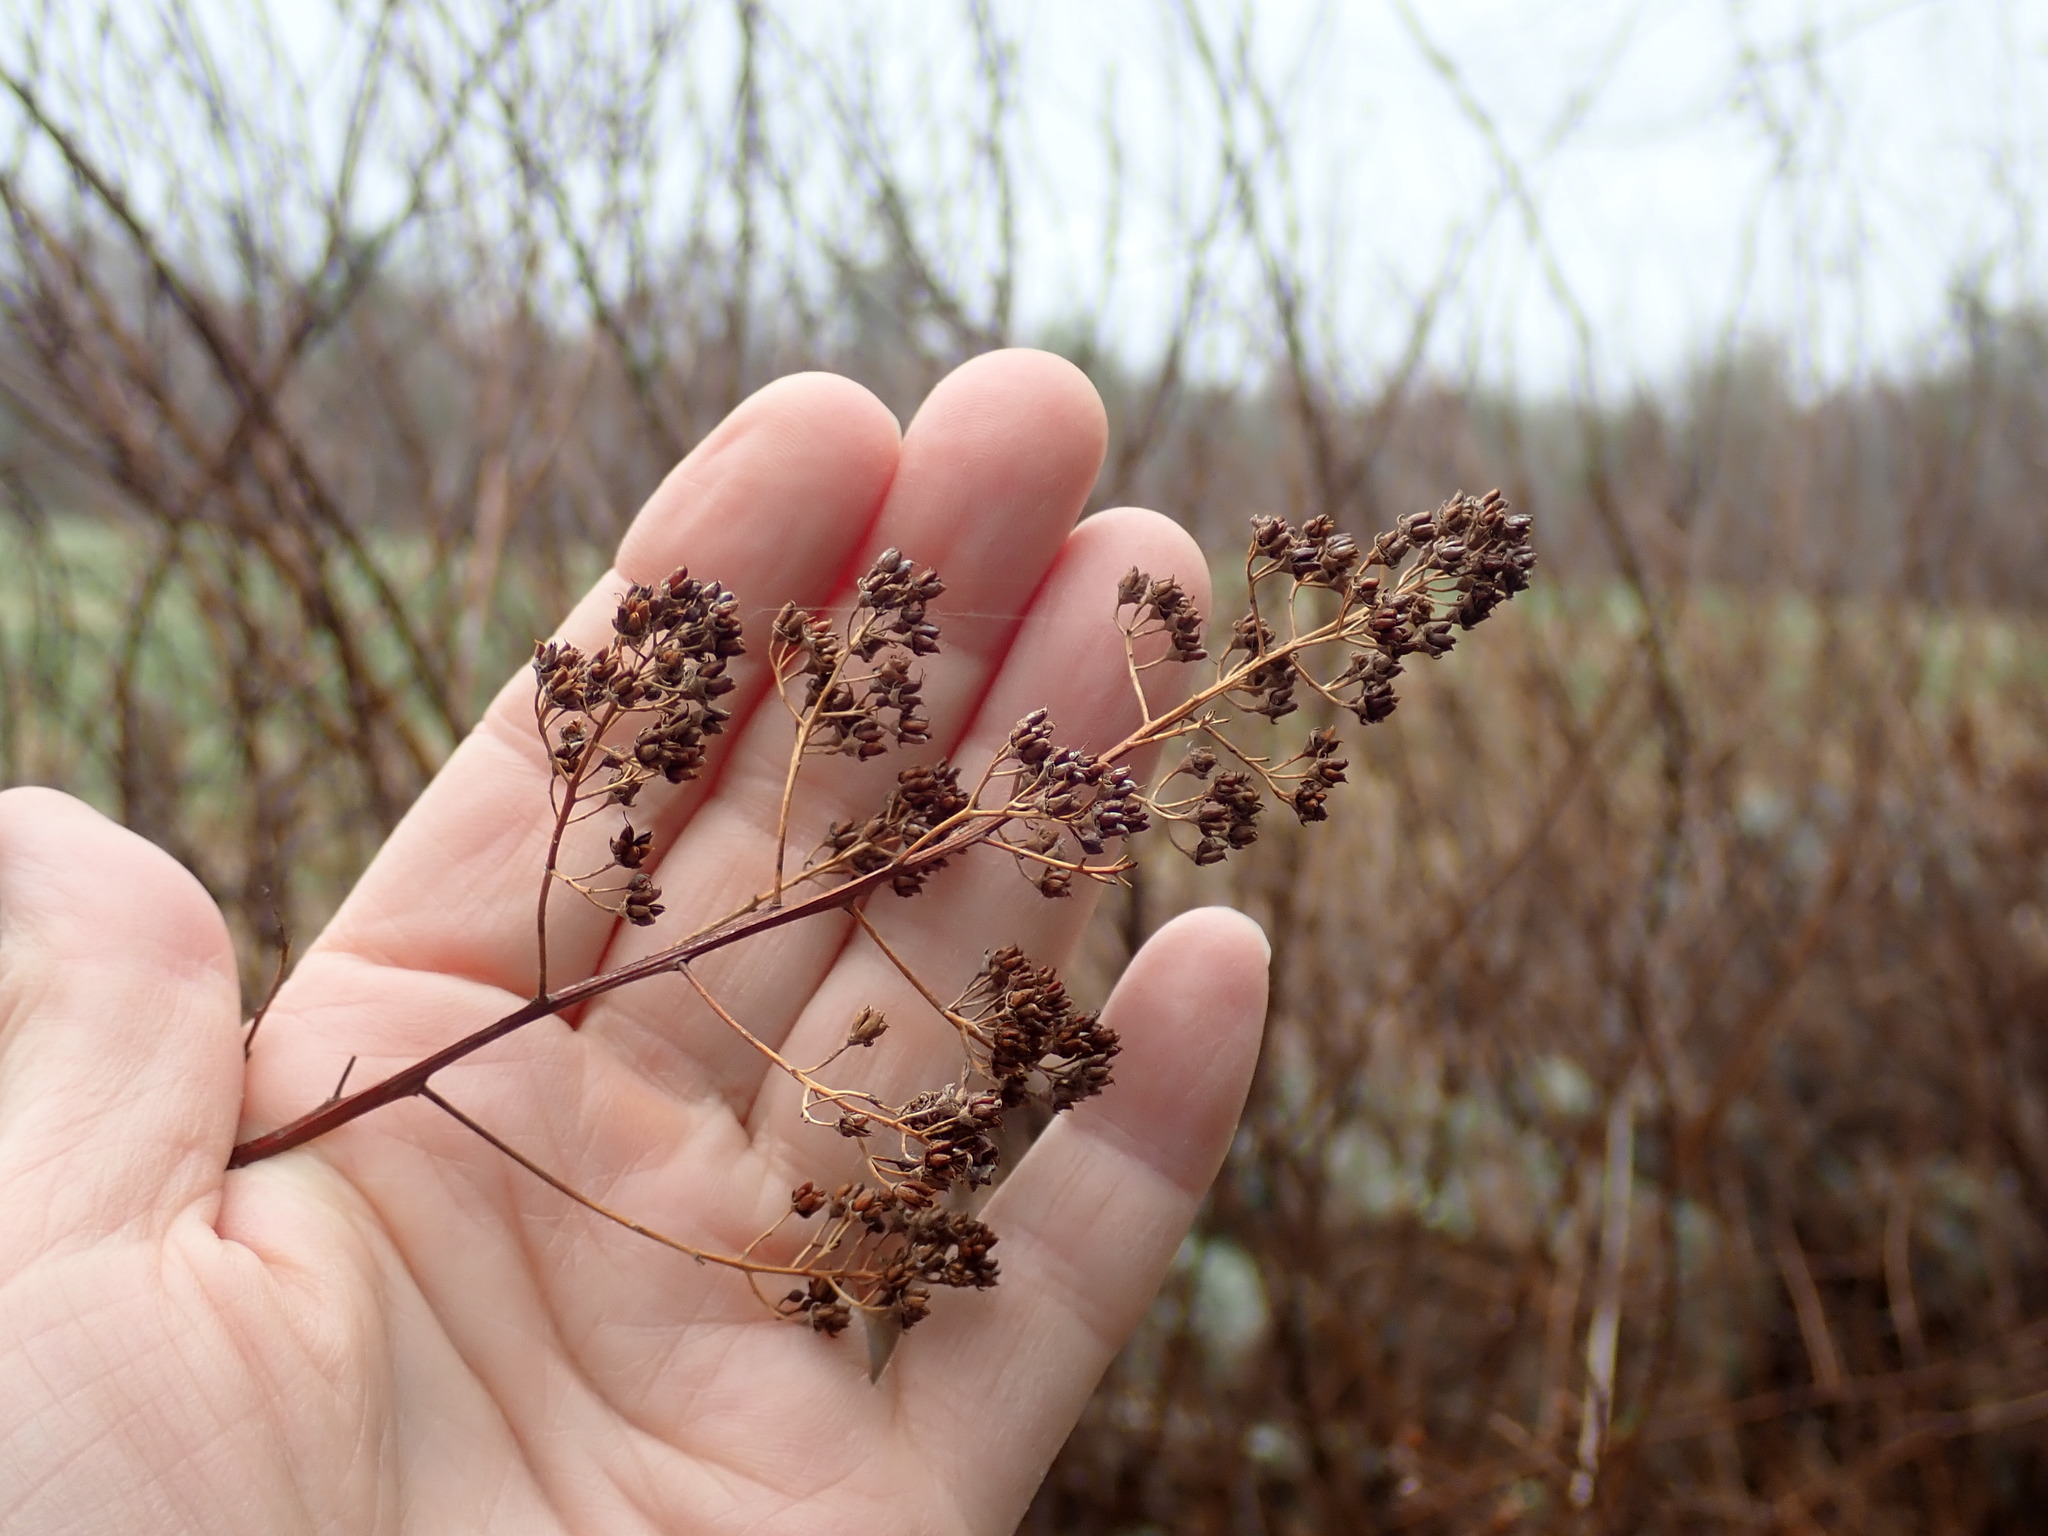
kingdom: Plantae
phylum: Tracheophyta
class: Magnoliopsida
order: Rosales
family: Rosaceae
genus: Spiraea
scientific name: Spiraea alba
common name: Pale bridewort
